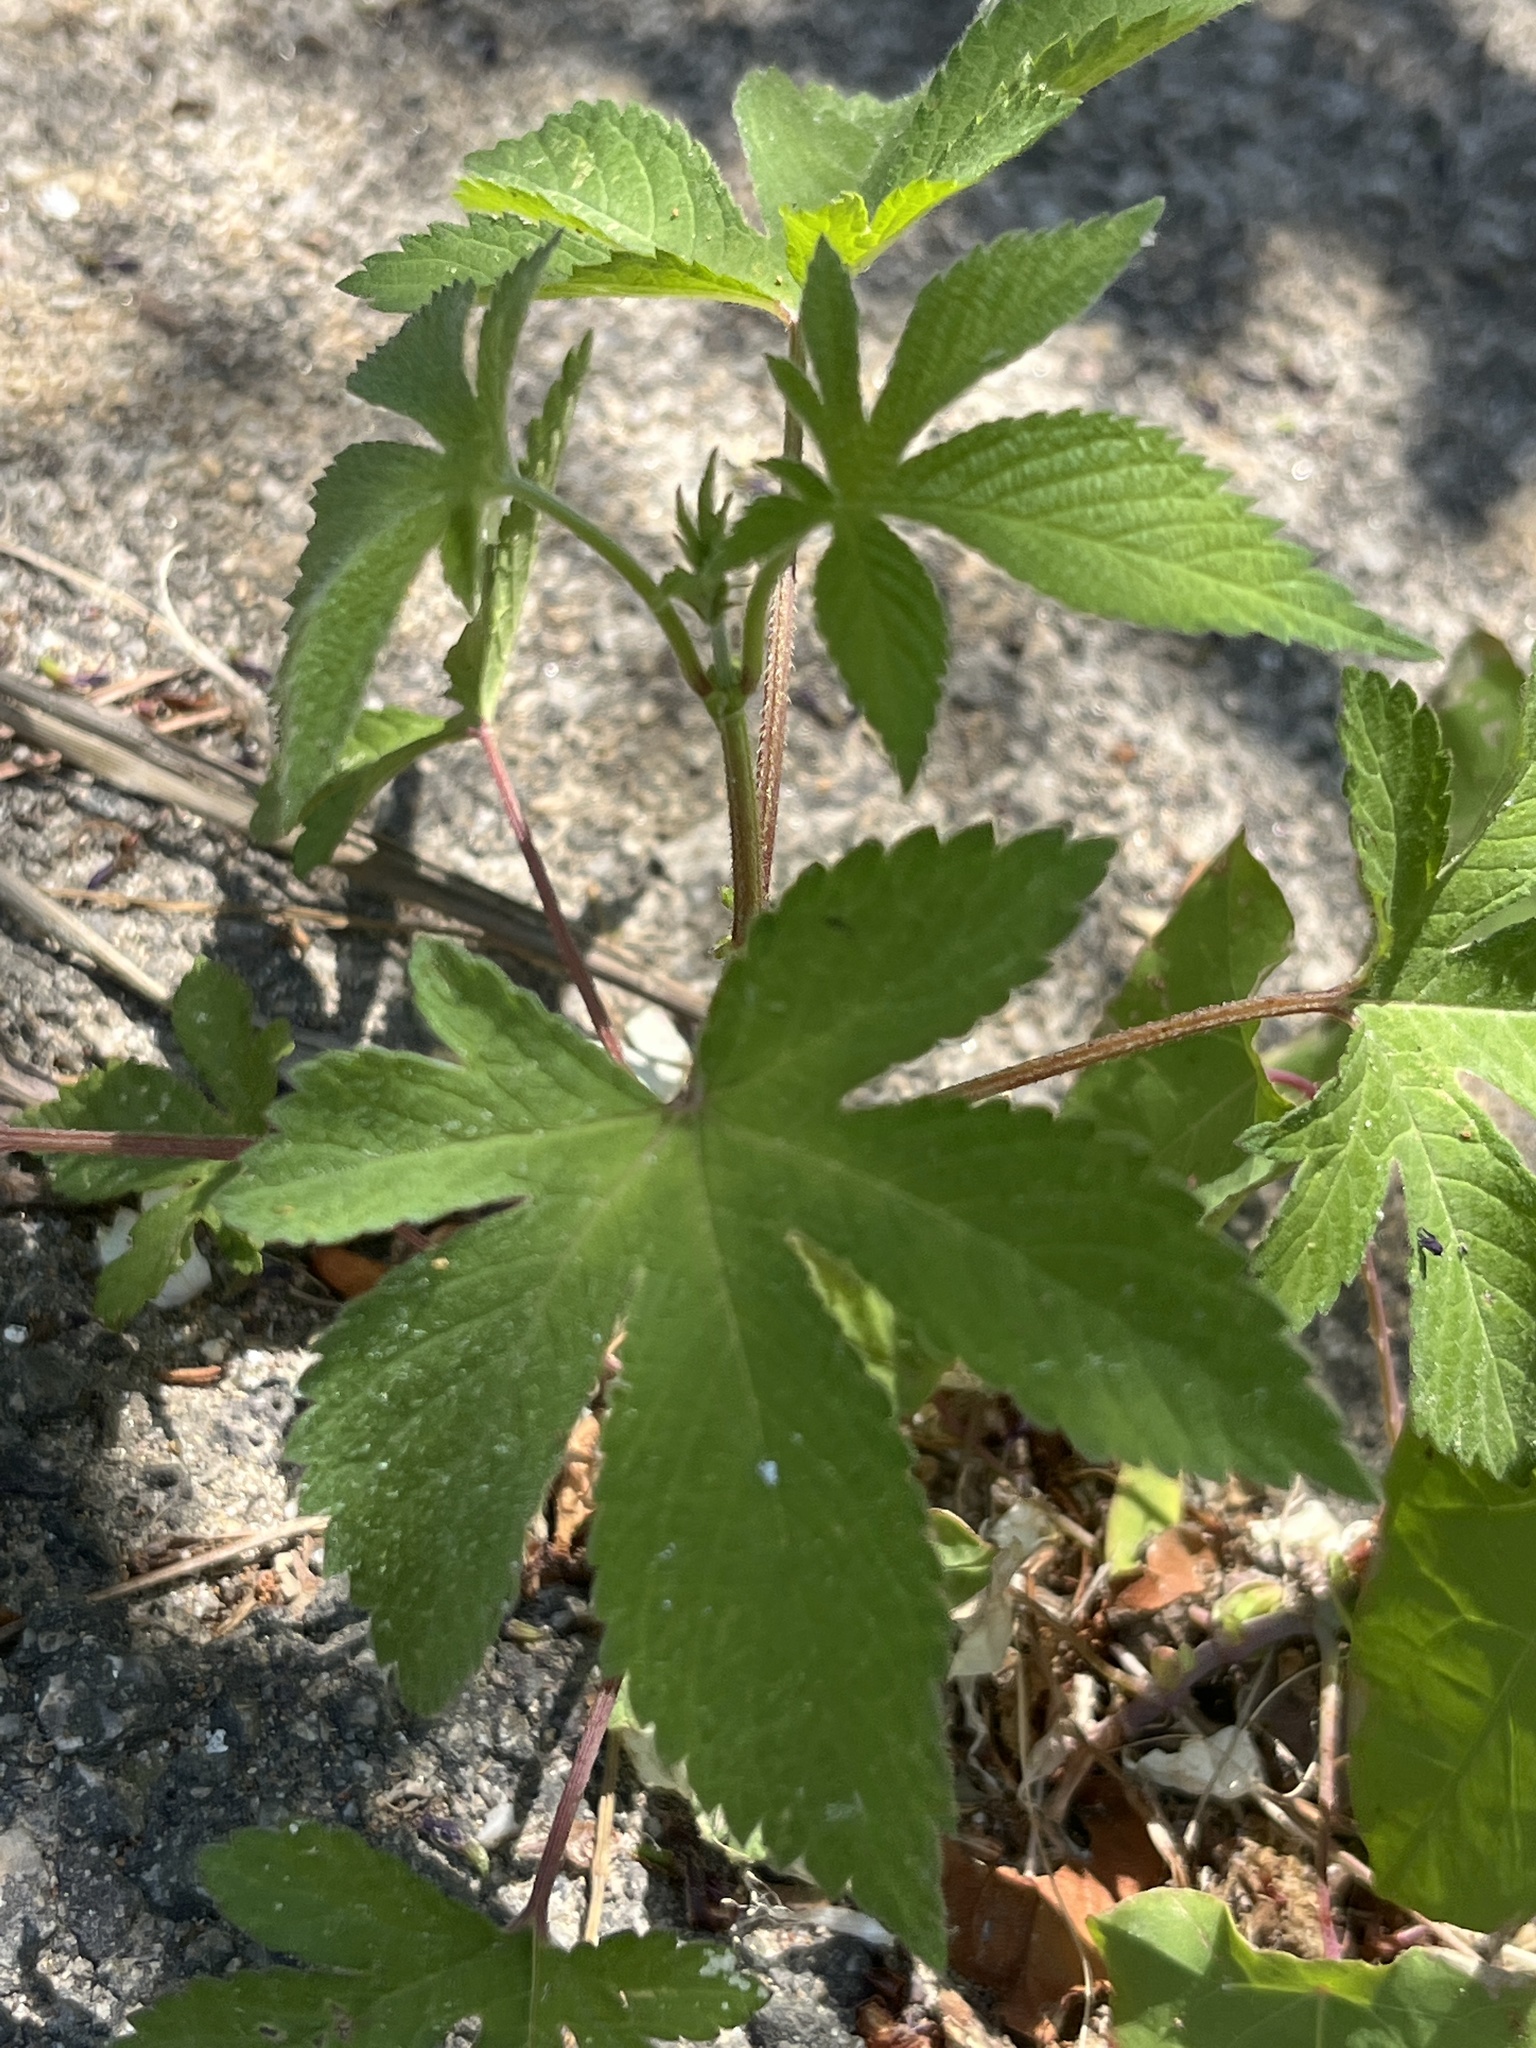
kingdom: Plantae
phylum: Tracheophyta
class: Magnoliopsida
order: Rosales
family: Cannabaceae
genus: Humulus
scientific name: Humulus scandens
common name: Japanese hop
